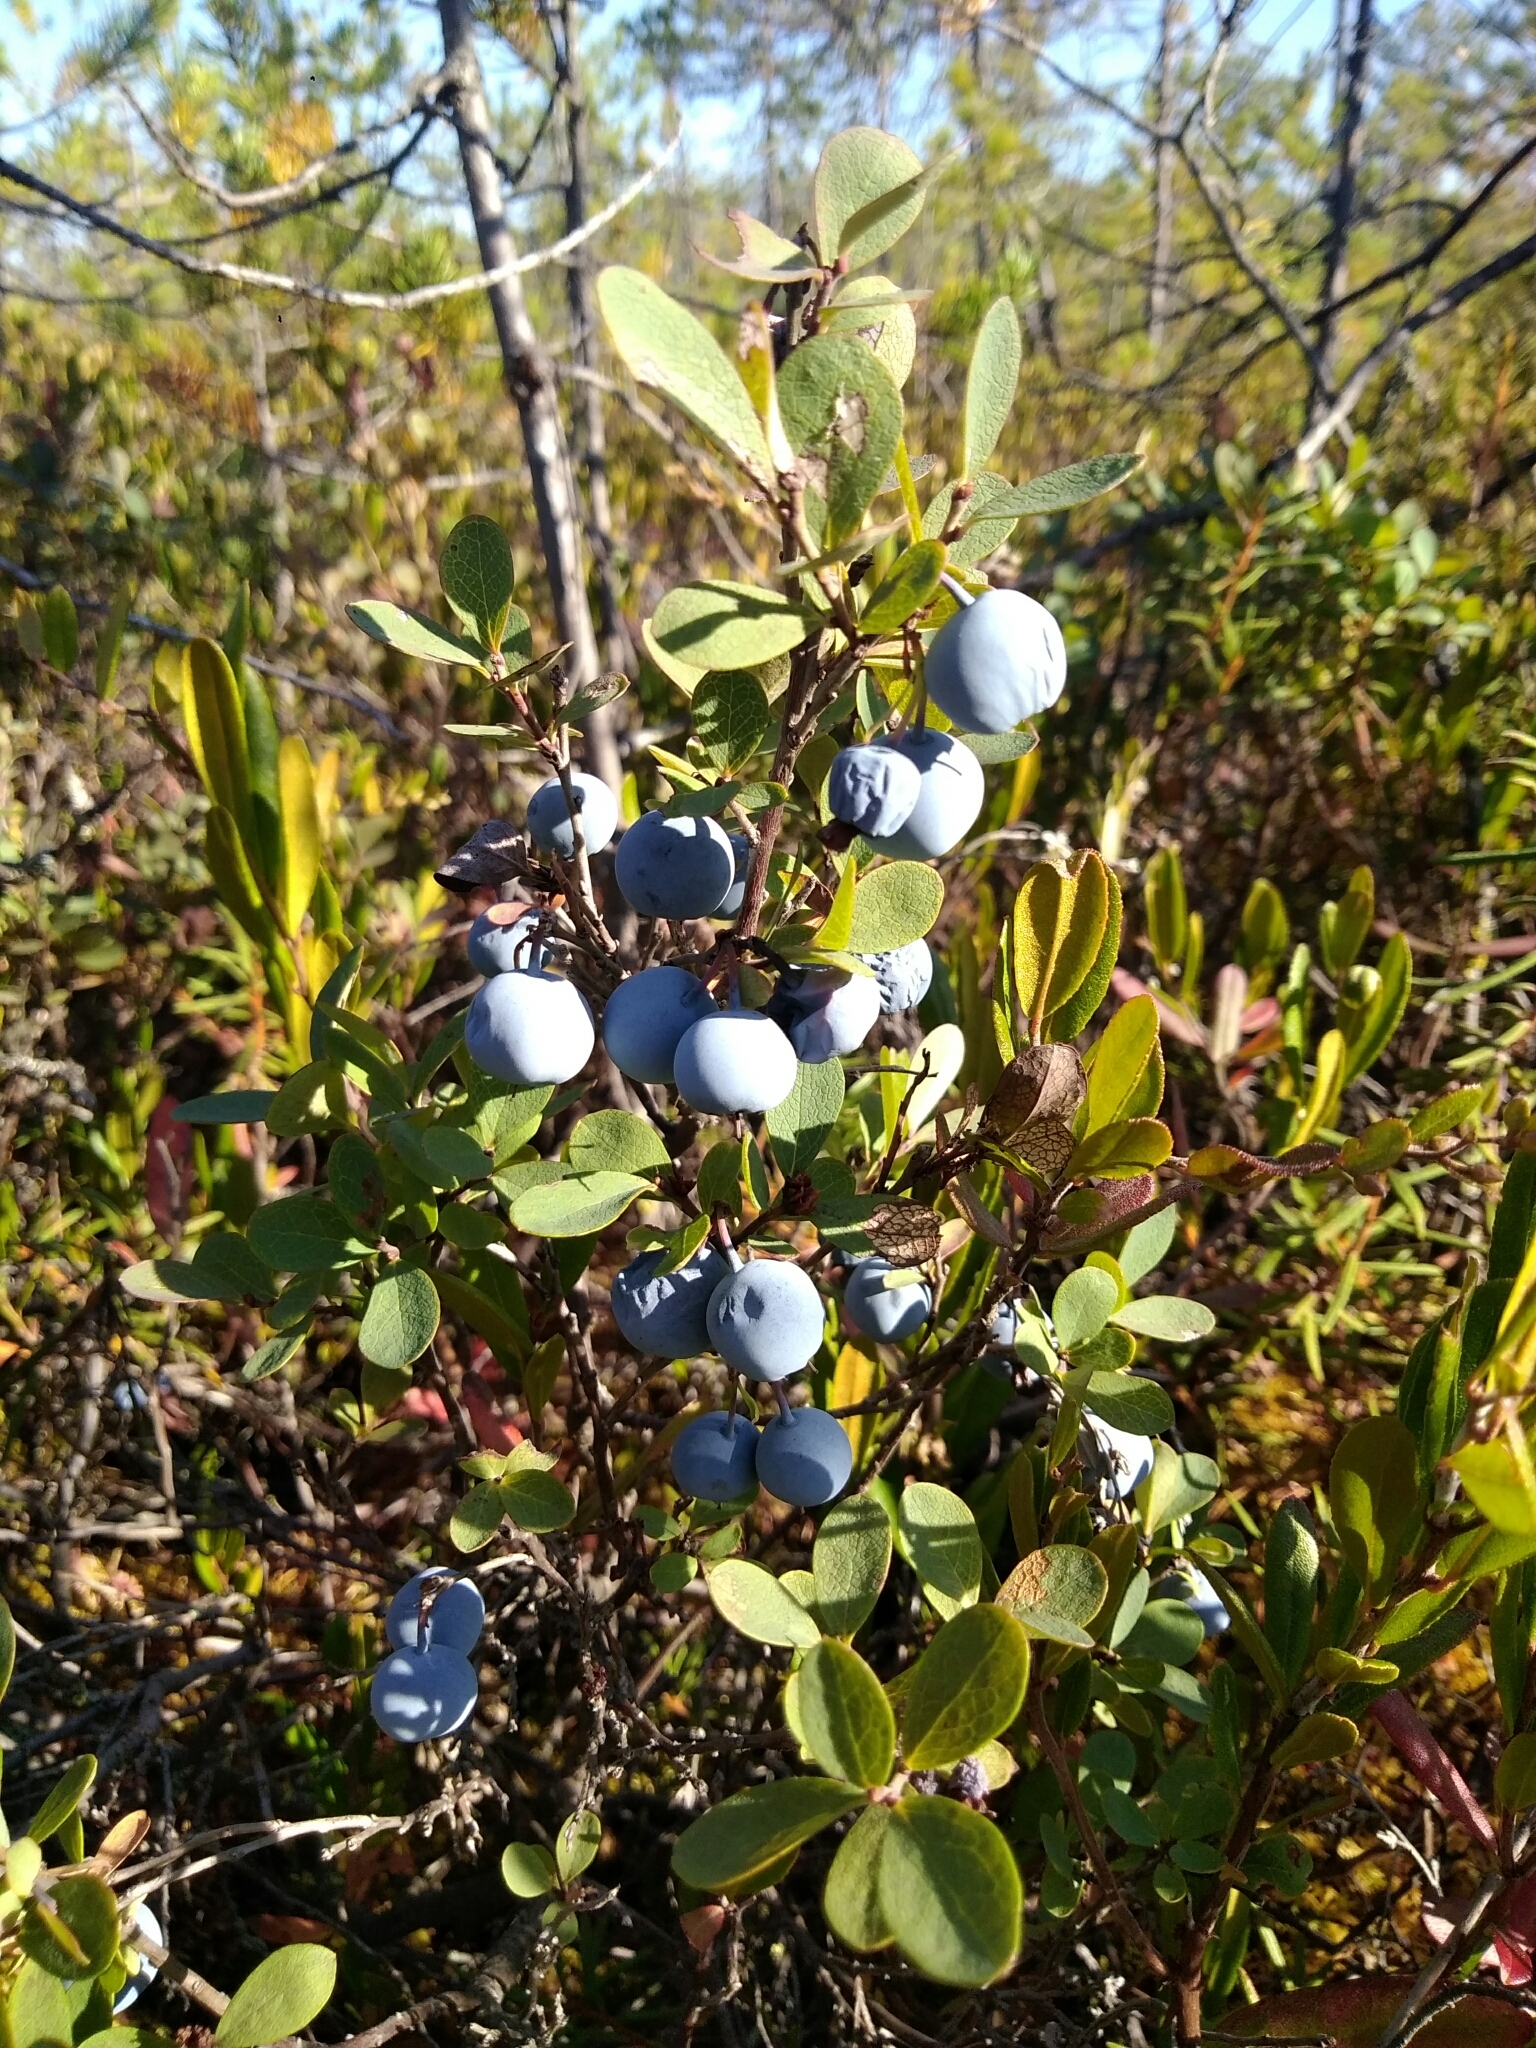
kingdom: Plantae
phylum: Tracheophyta
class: Magnoliopsida
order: Ericales
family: Ericaceae
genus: Vaccinium
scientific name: Vaccinium uliginosum
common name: Bog bilberry
